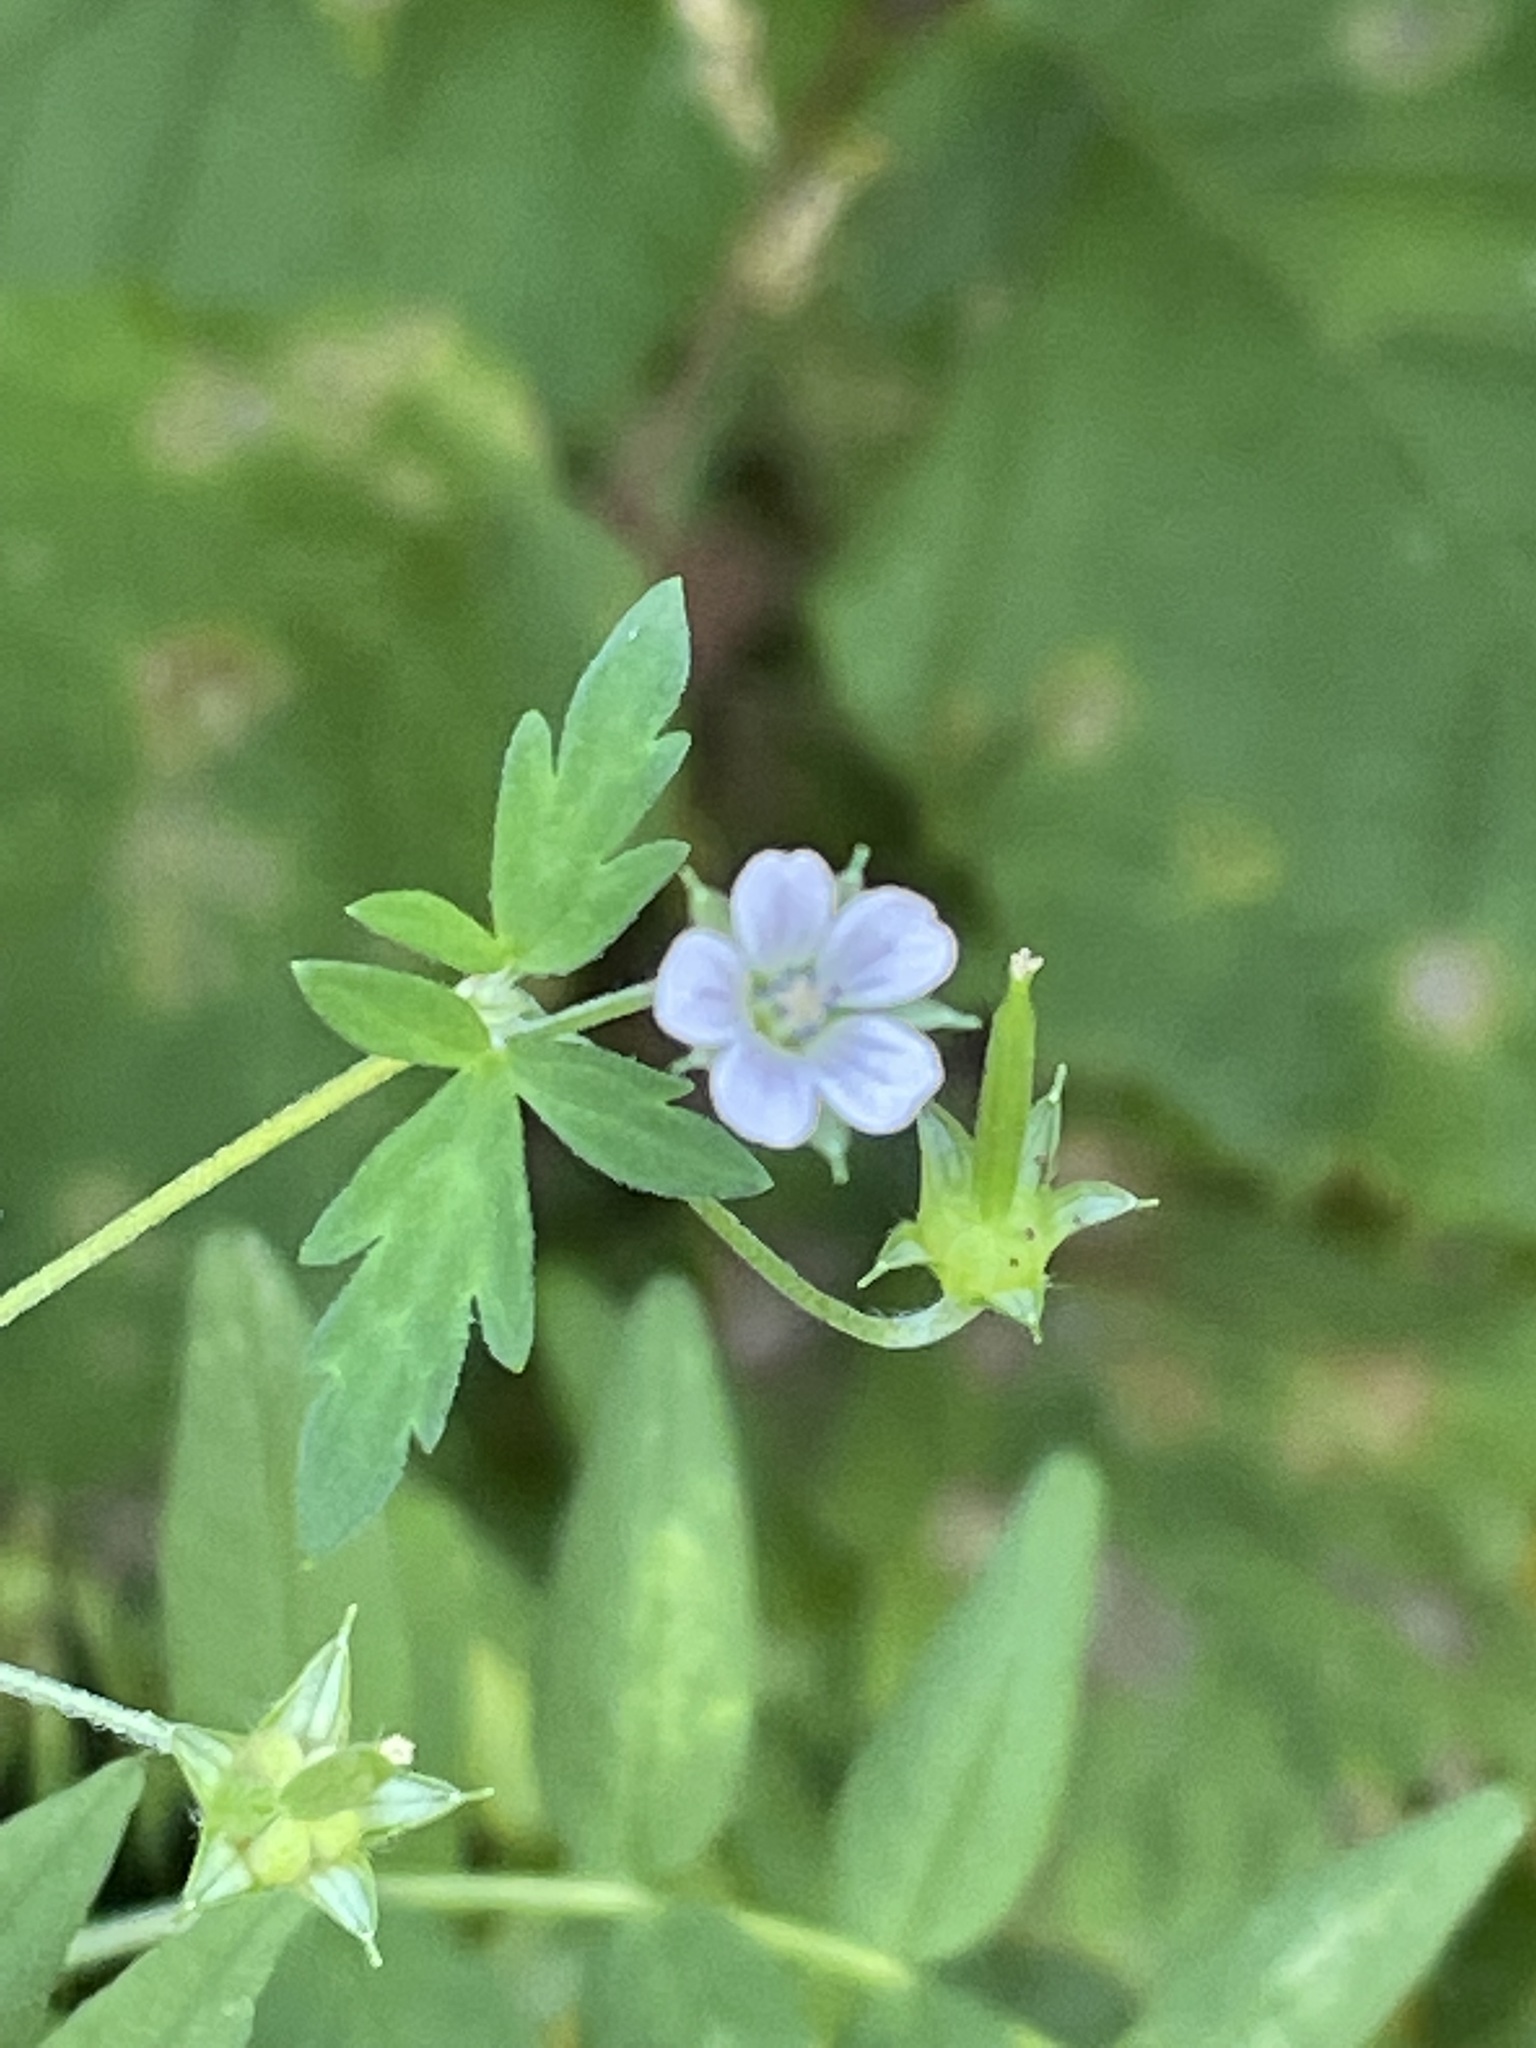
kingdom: Plantae
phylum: Tracheophyta
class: Magnoliopsida
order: Geraniales
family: Geraniaceae
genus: Geranium
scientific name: Geranium sibiricum
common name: Siberian crane's-bill
